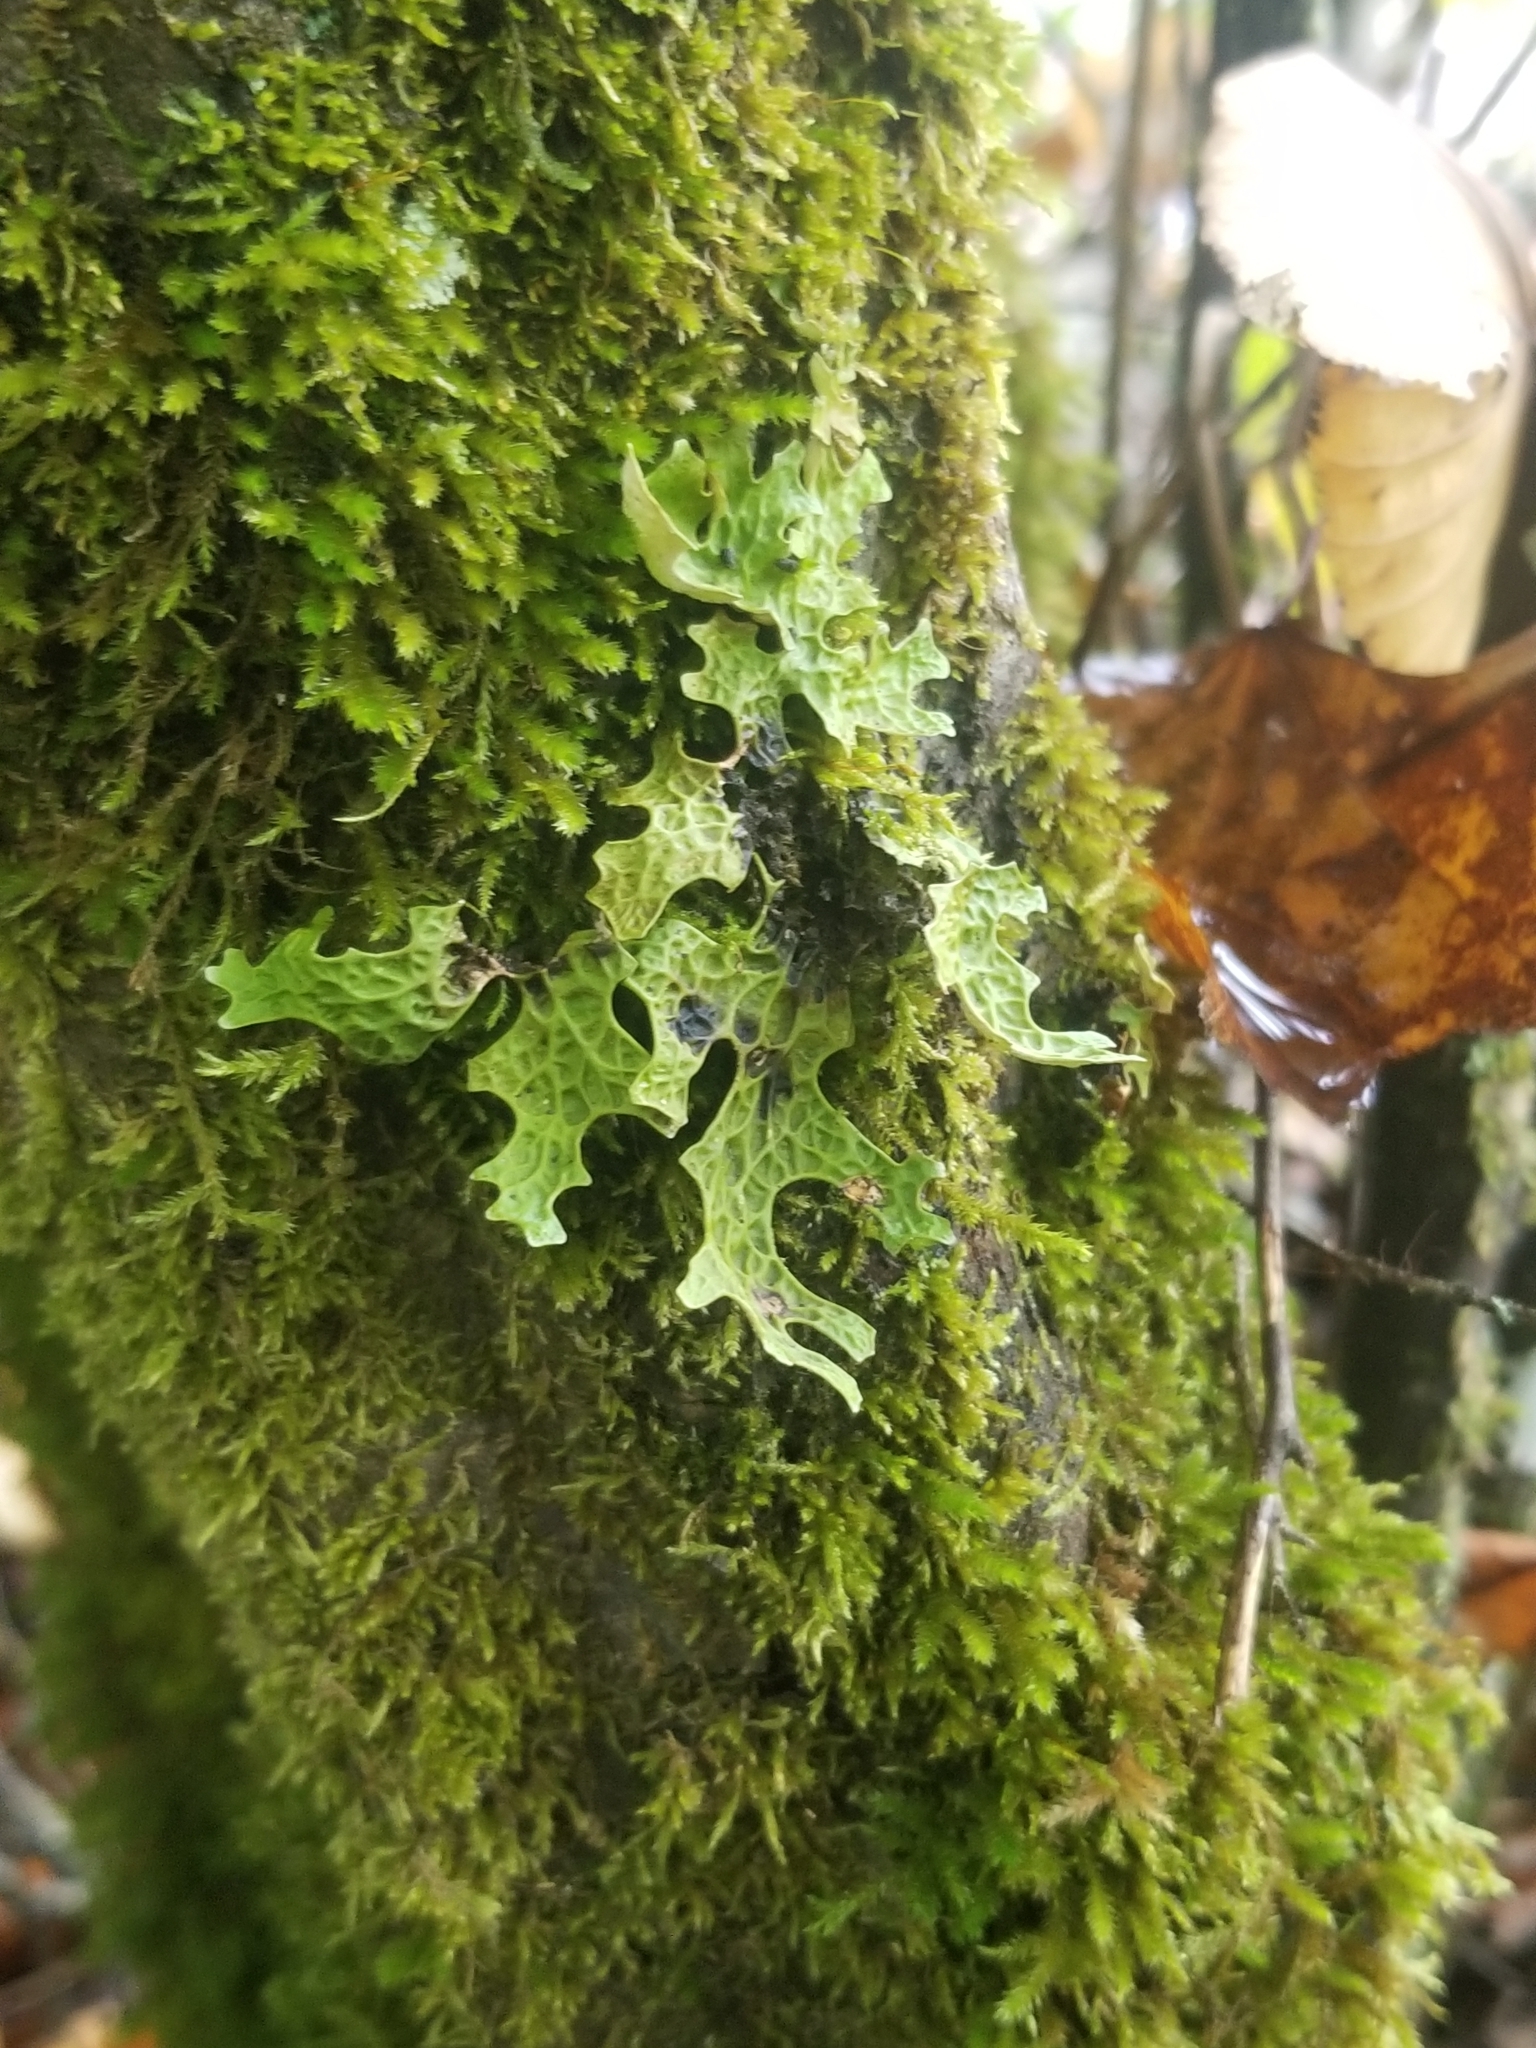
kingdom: Fungi
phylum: Ascomycota
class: Lecanoromycetes
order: Peltigerales
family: Lobariaceae
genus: Lobaria
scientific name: Lobaria pulmonaria
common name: Lungwort
